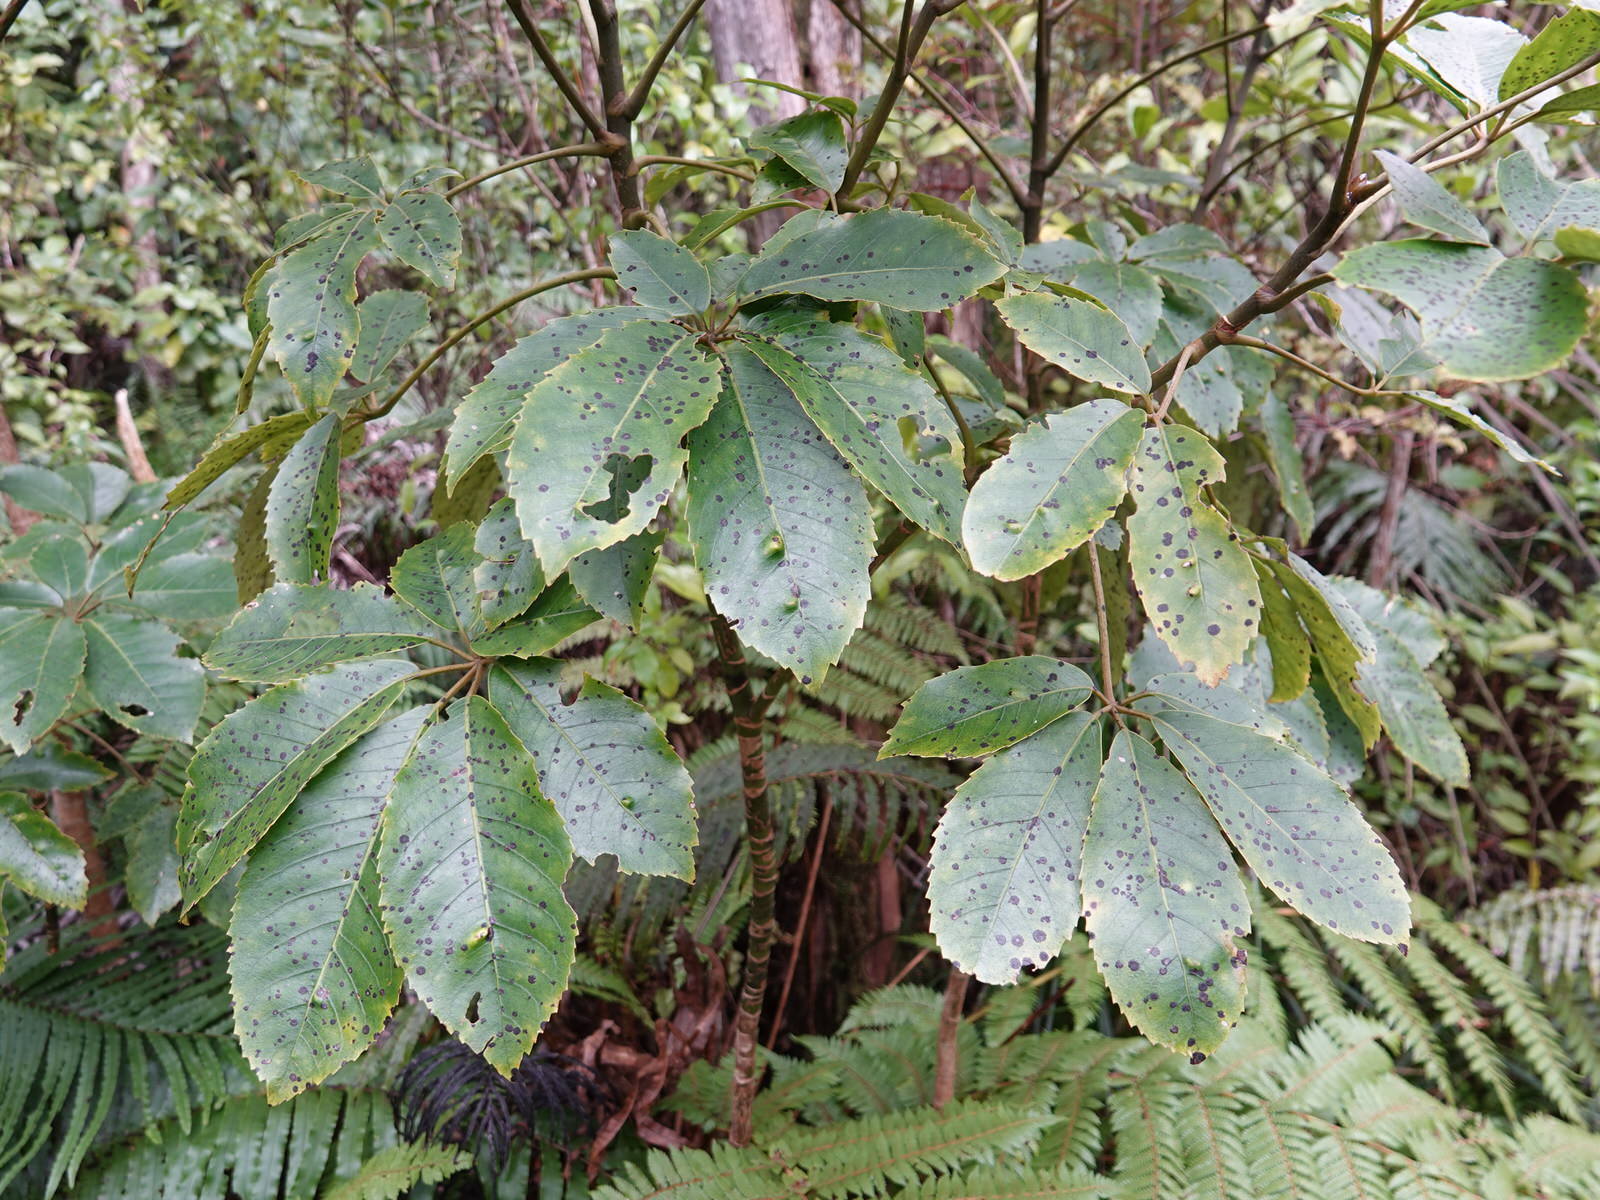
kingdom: Plantae
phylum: Tracheophyta
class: Magnoliopsida
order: Apiales
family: Araliaceae
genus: Neopanax
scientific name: Neopanax arboreus
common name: Five-fingers
